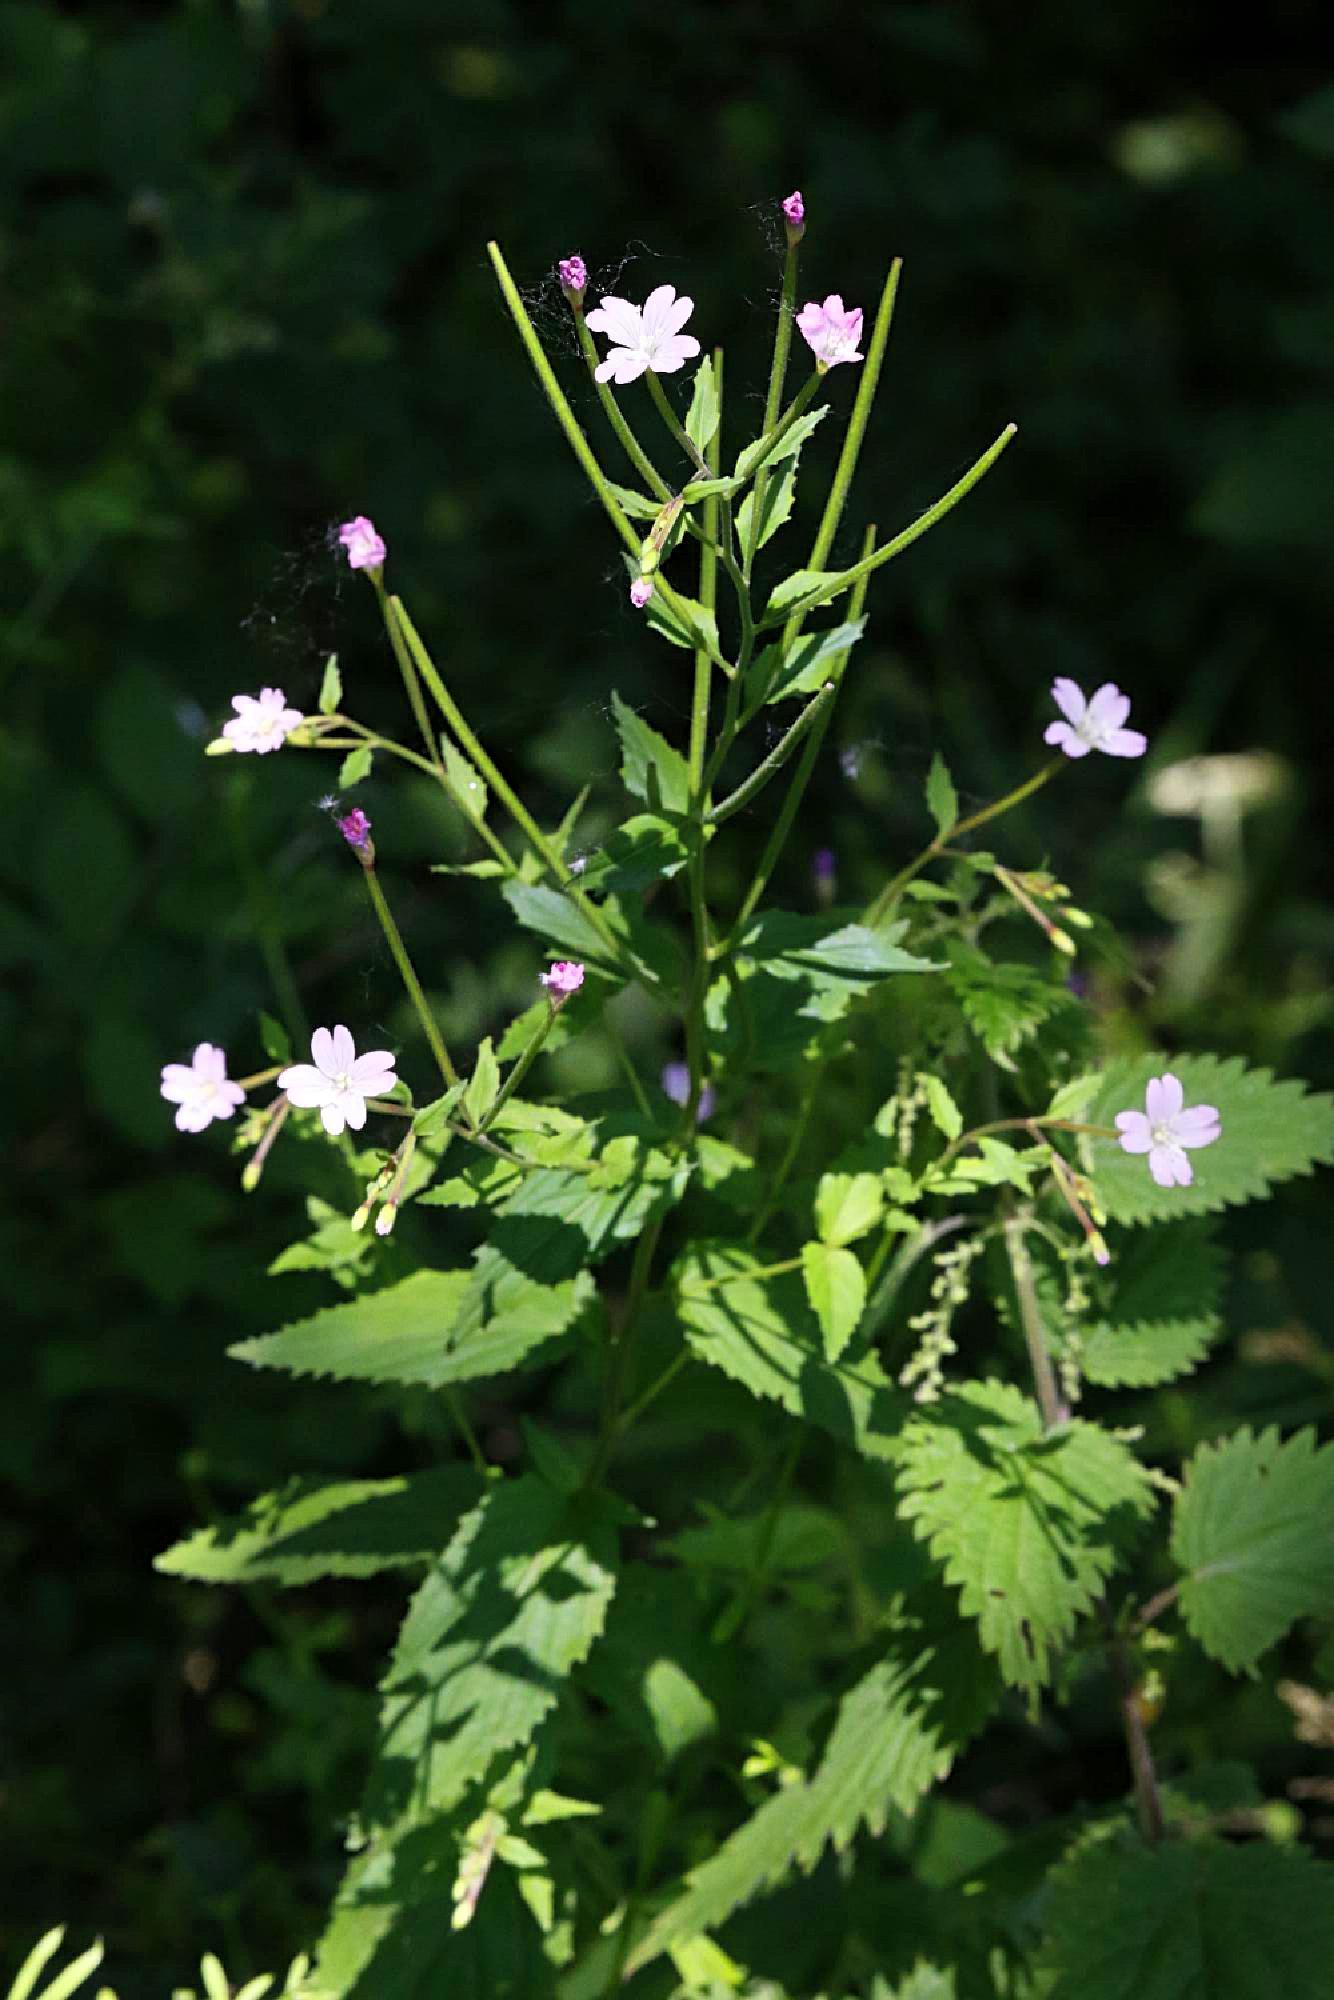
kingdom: Plantae
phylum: Tracheophyta
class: Magnoliopsida
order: Myrtales
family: Onagraceae
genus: Epilobium
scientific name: Epilobium montanum
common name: Broad-leaved willowherb
